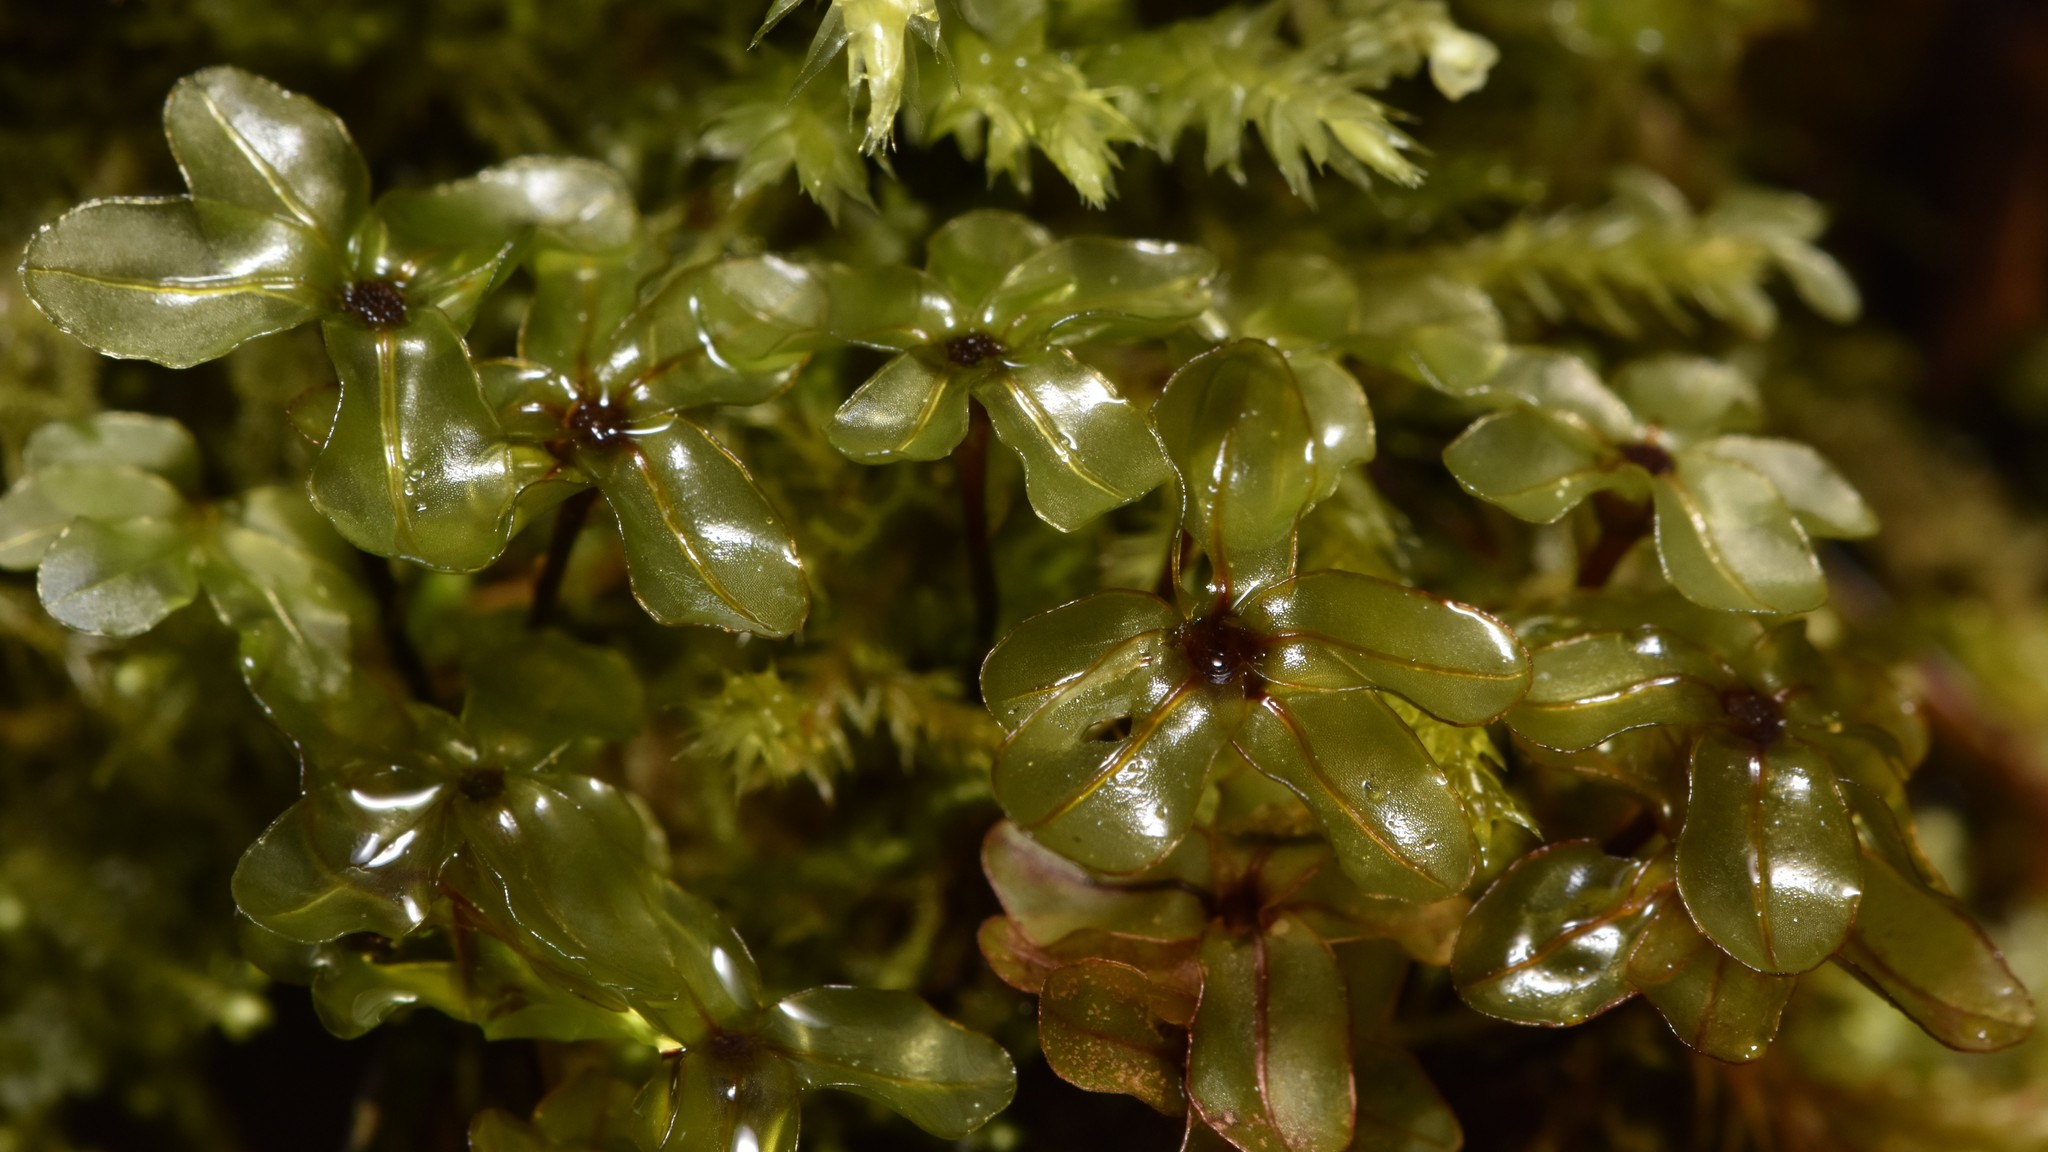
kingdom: Plantae
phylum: Bryophyta
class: Bryopsida
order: Bryales
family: Mniaceae
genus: Rhizomnium
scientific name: Rhizomnium glabrescens
